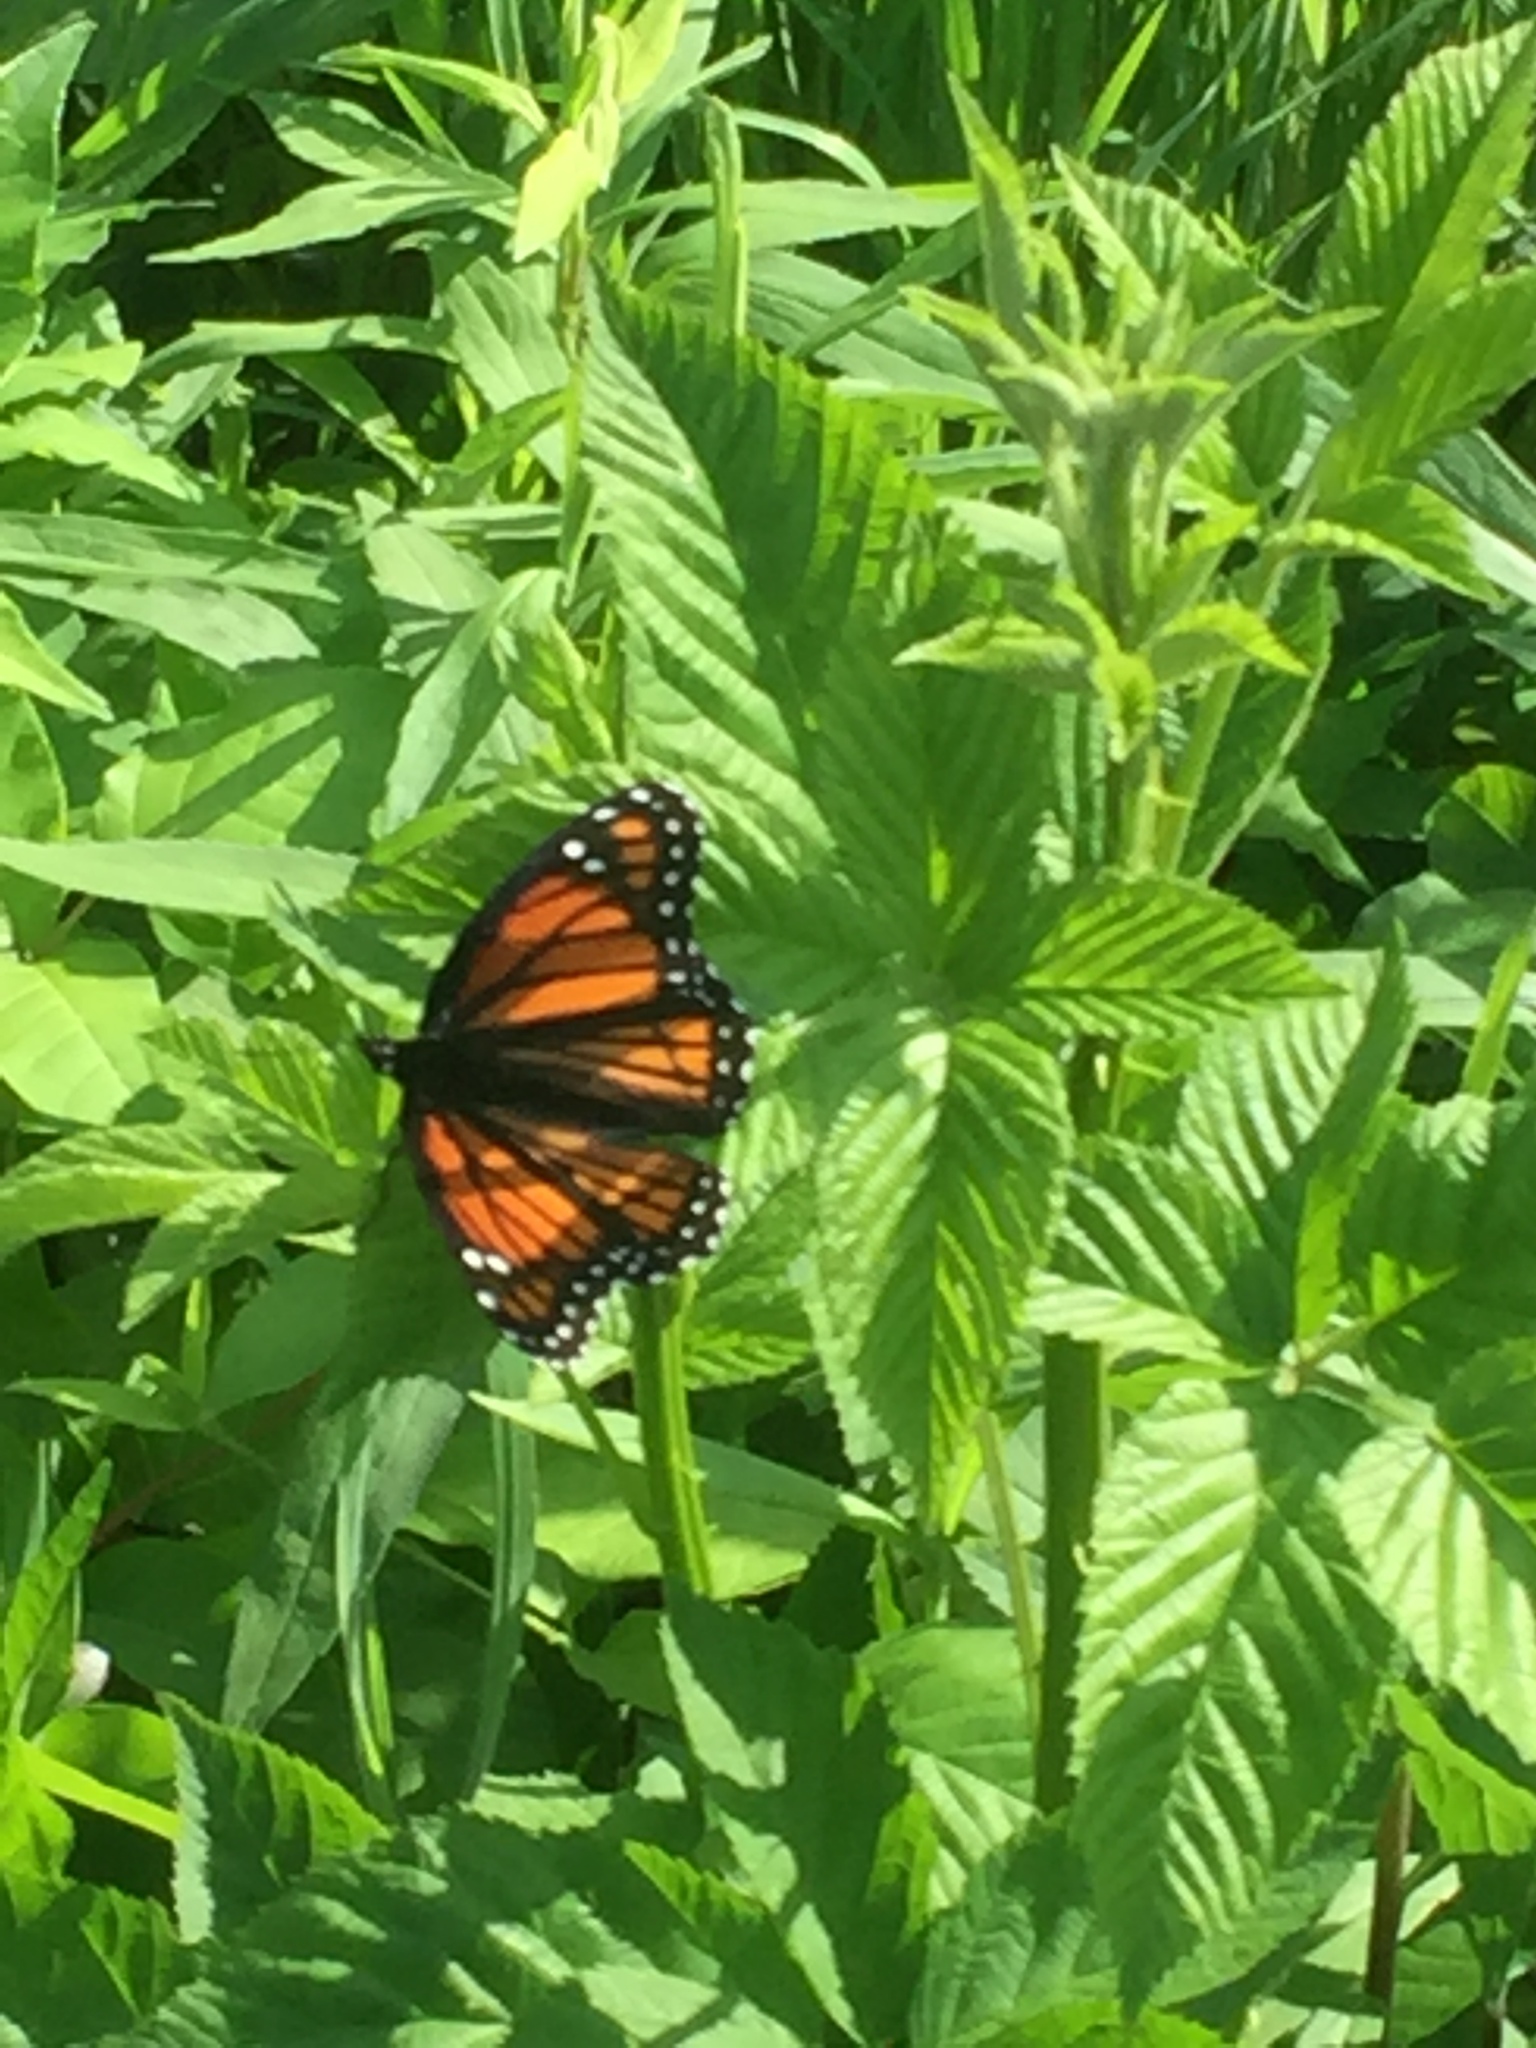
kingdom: Animalia
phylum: Arthropoda
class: Insecta
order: Lepidoptera
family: Nymphalidae
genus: Limenitis
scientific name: Limenitis archippus
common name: Viceroy
